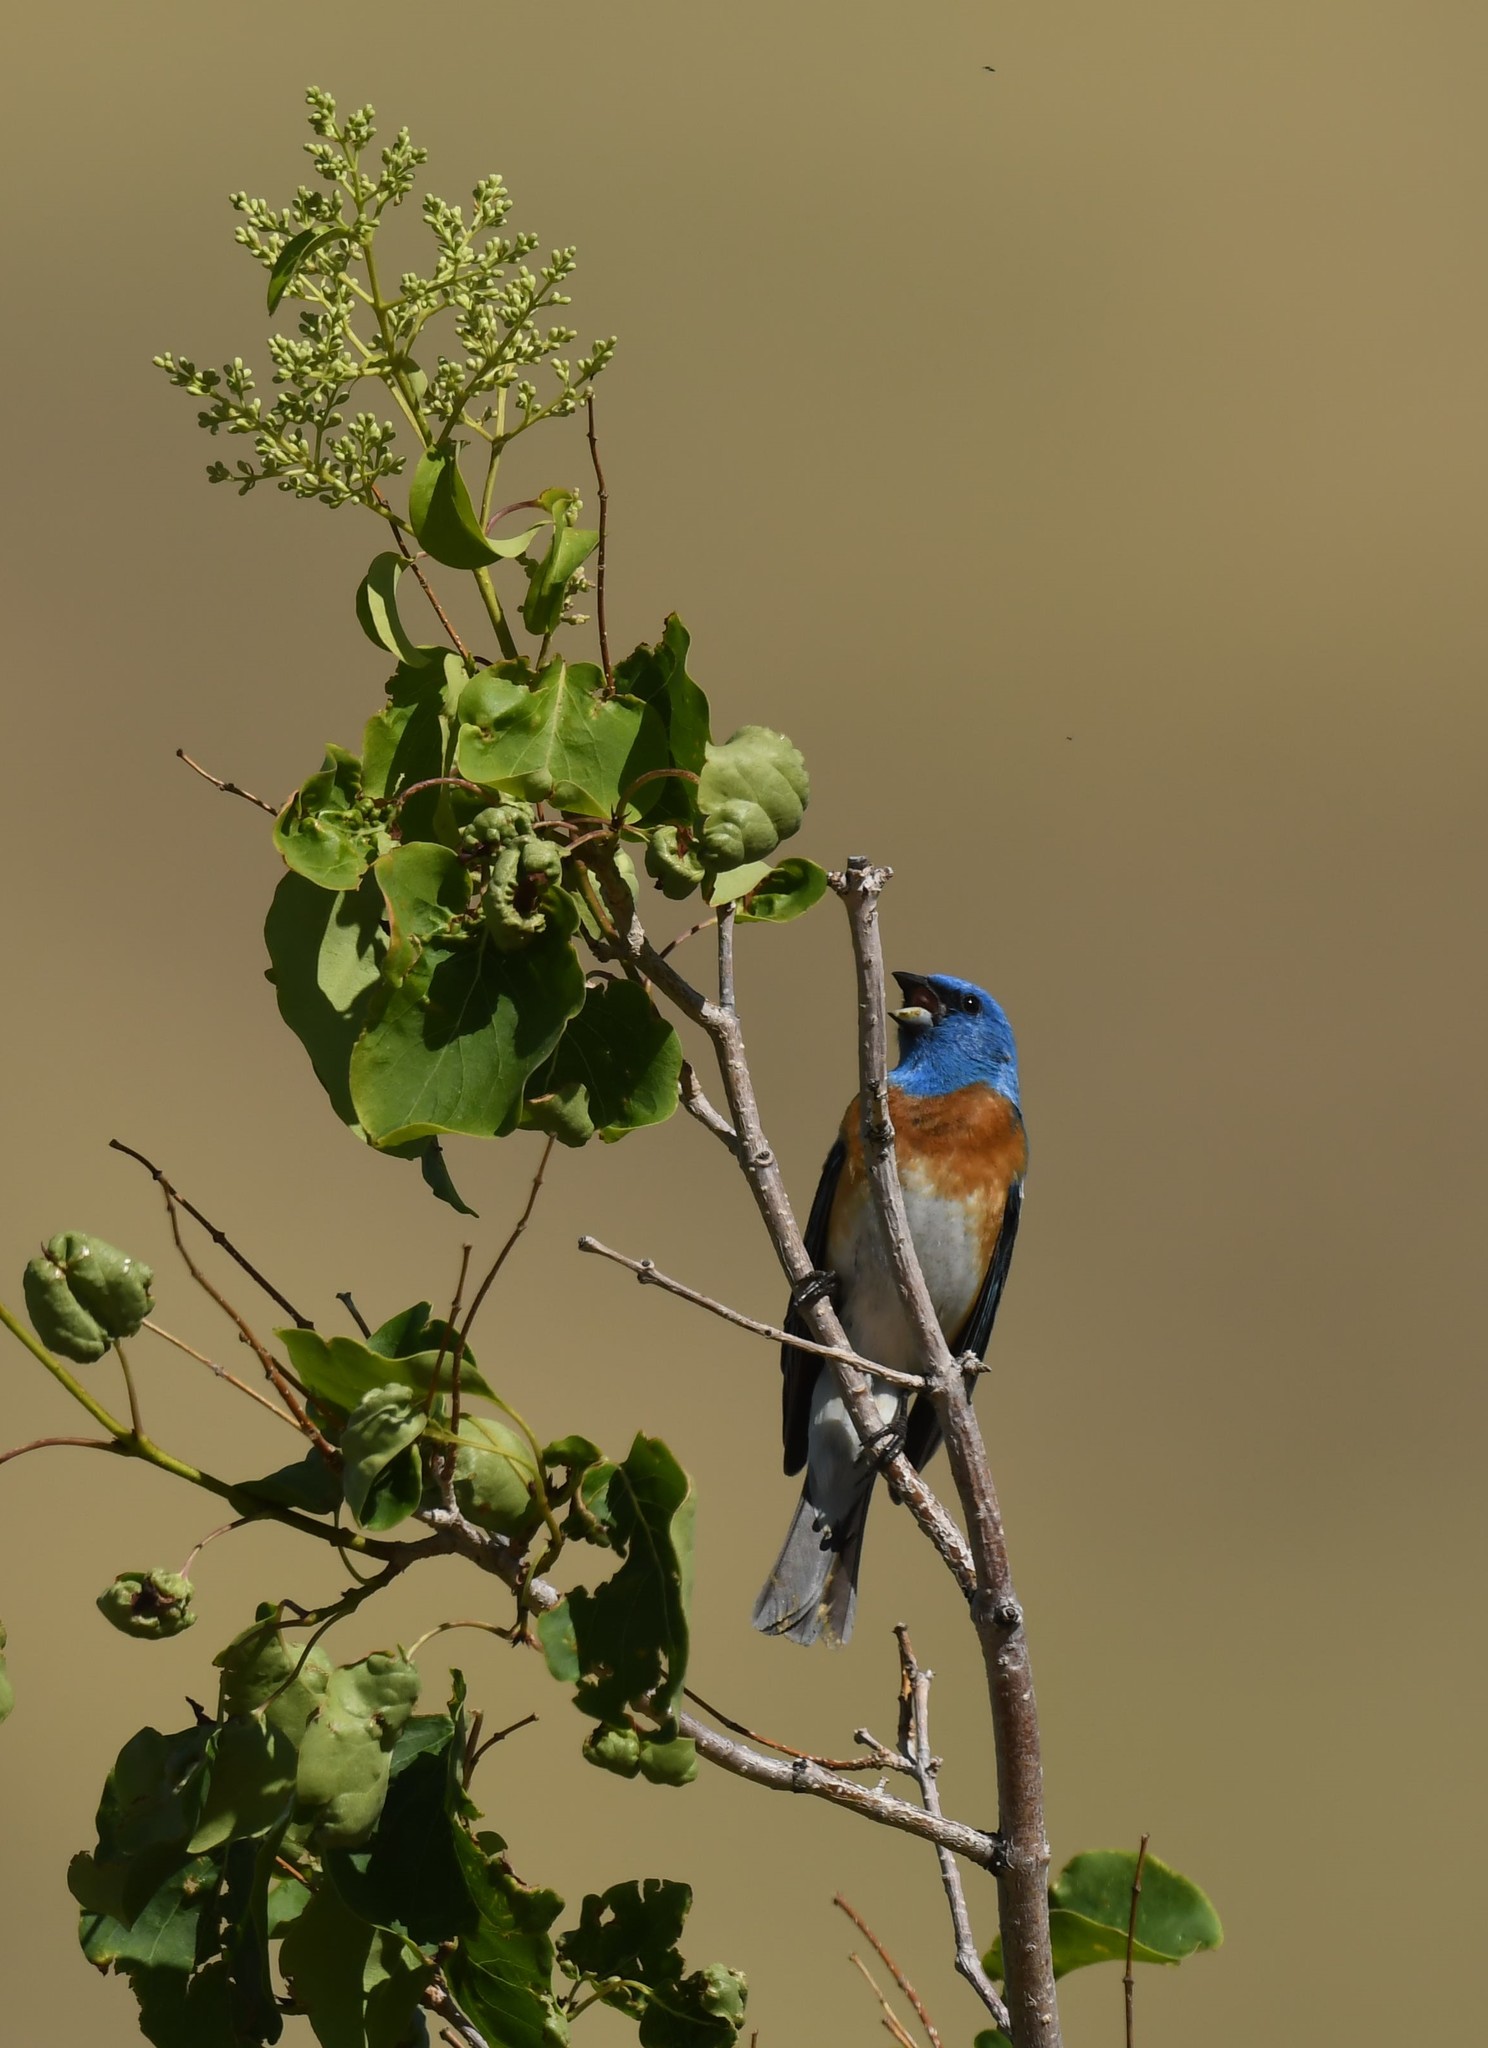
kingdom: Animalia
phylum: Chordata
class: Aves
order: Passeriformes
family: Cardinalidae
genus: Passerina
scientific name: Passerina amoena
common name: Lazuli bunting
